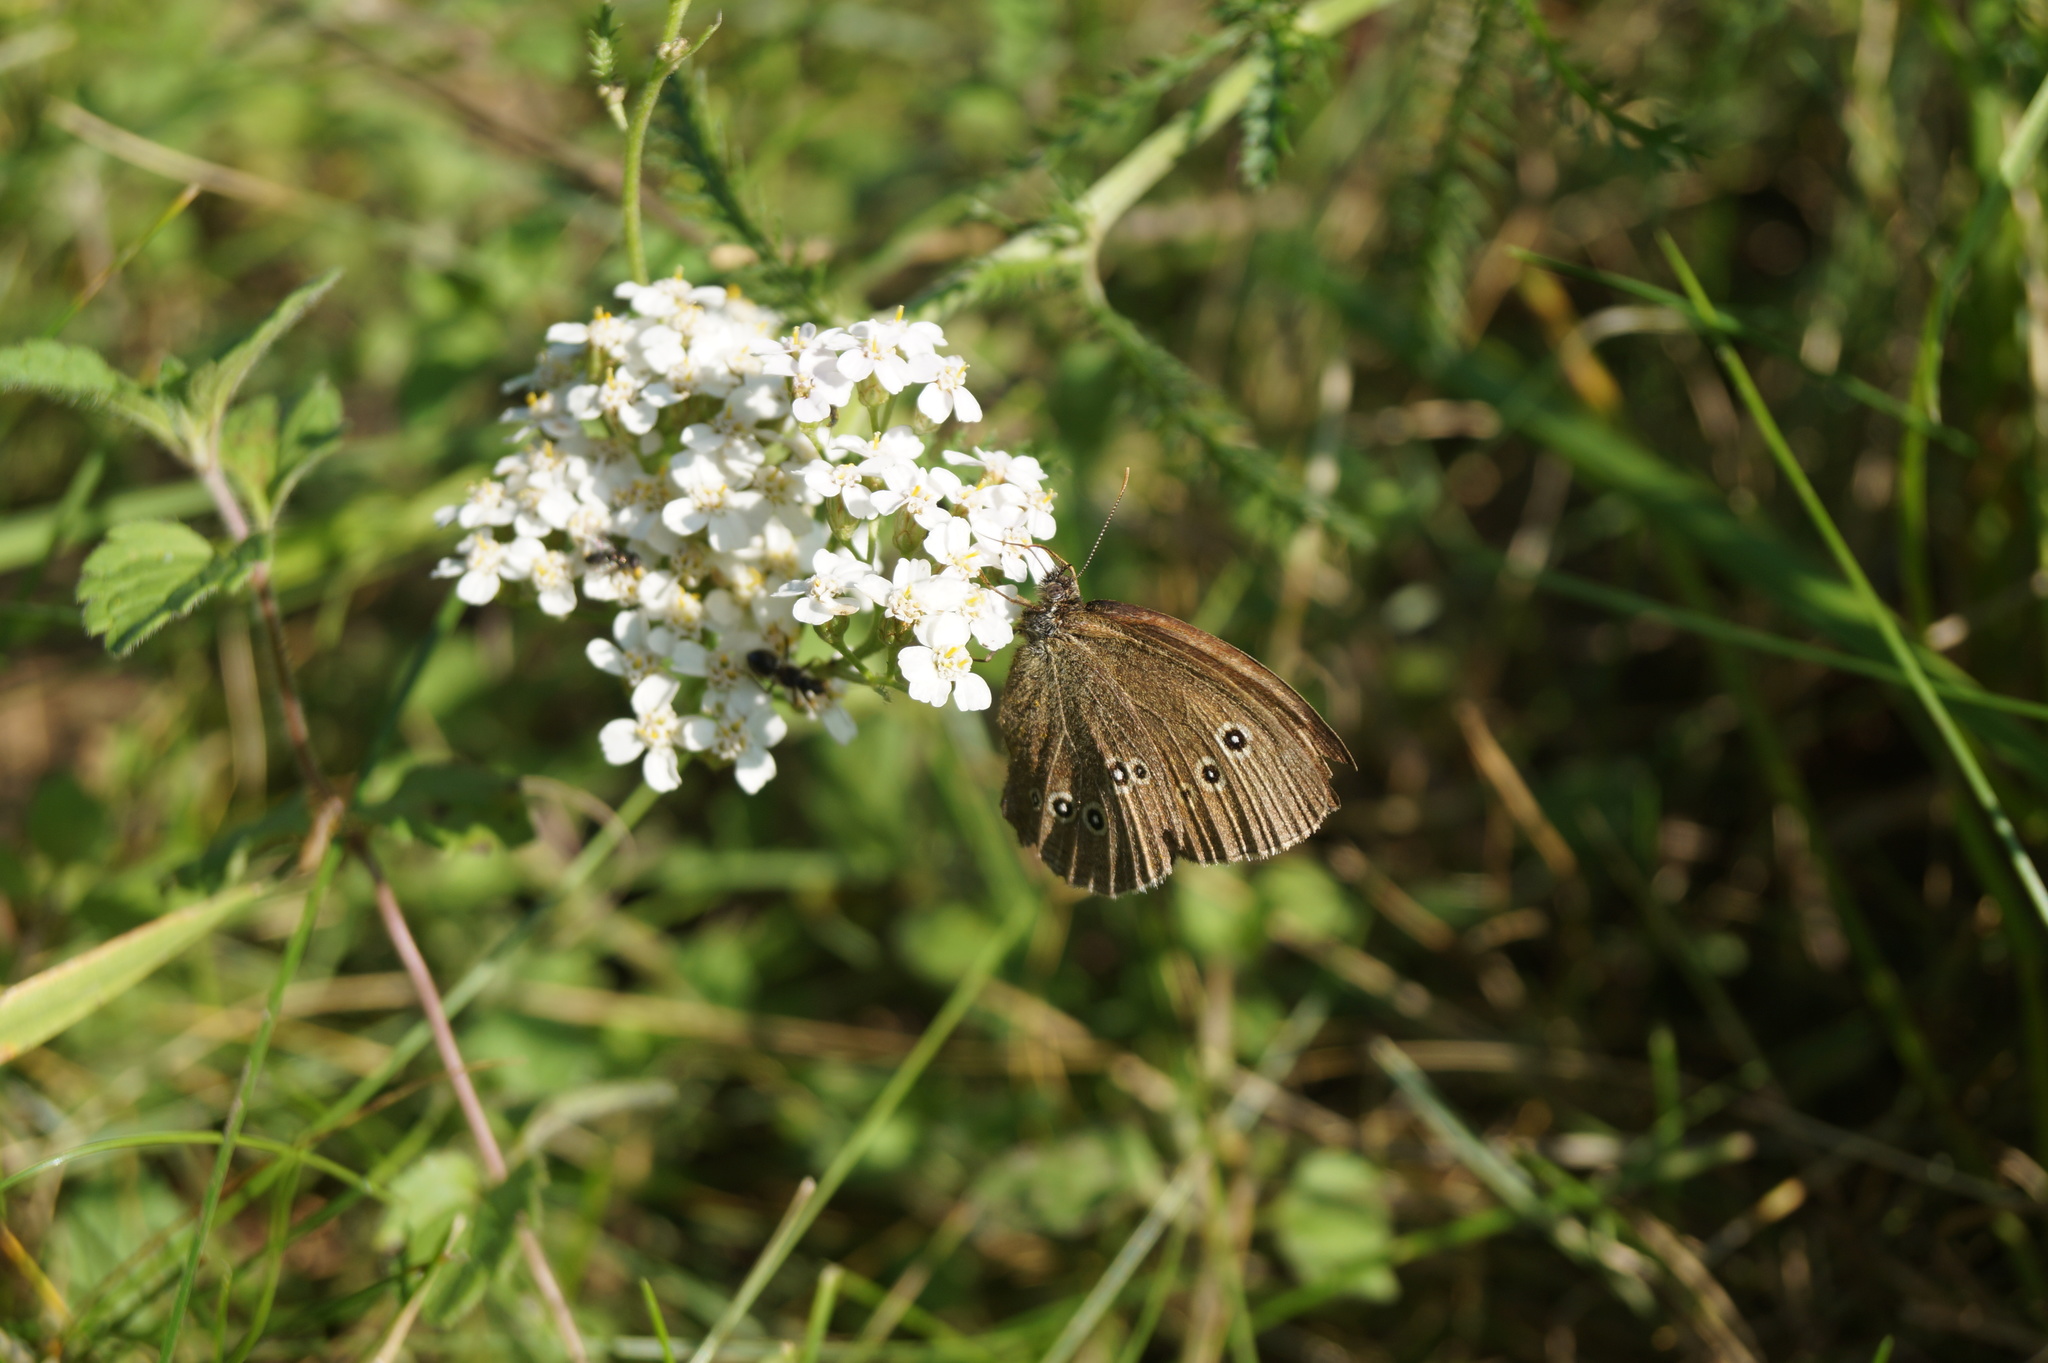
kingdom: Animalia
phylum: Arthropoda
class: Insecta
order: Lepidoptera
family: Nymphalidae
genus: Aphantopus
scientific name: Aphantopus hyperantus
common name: Ringlet
